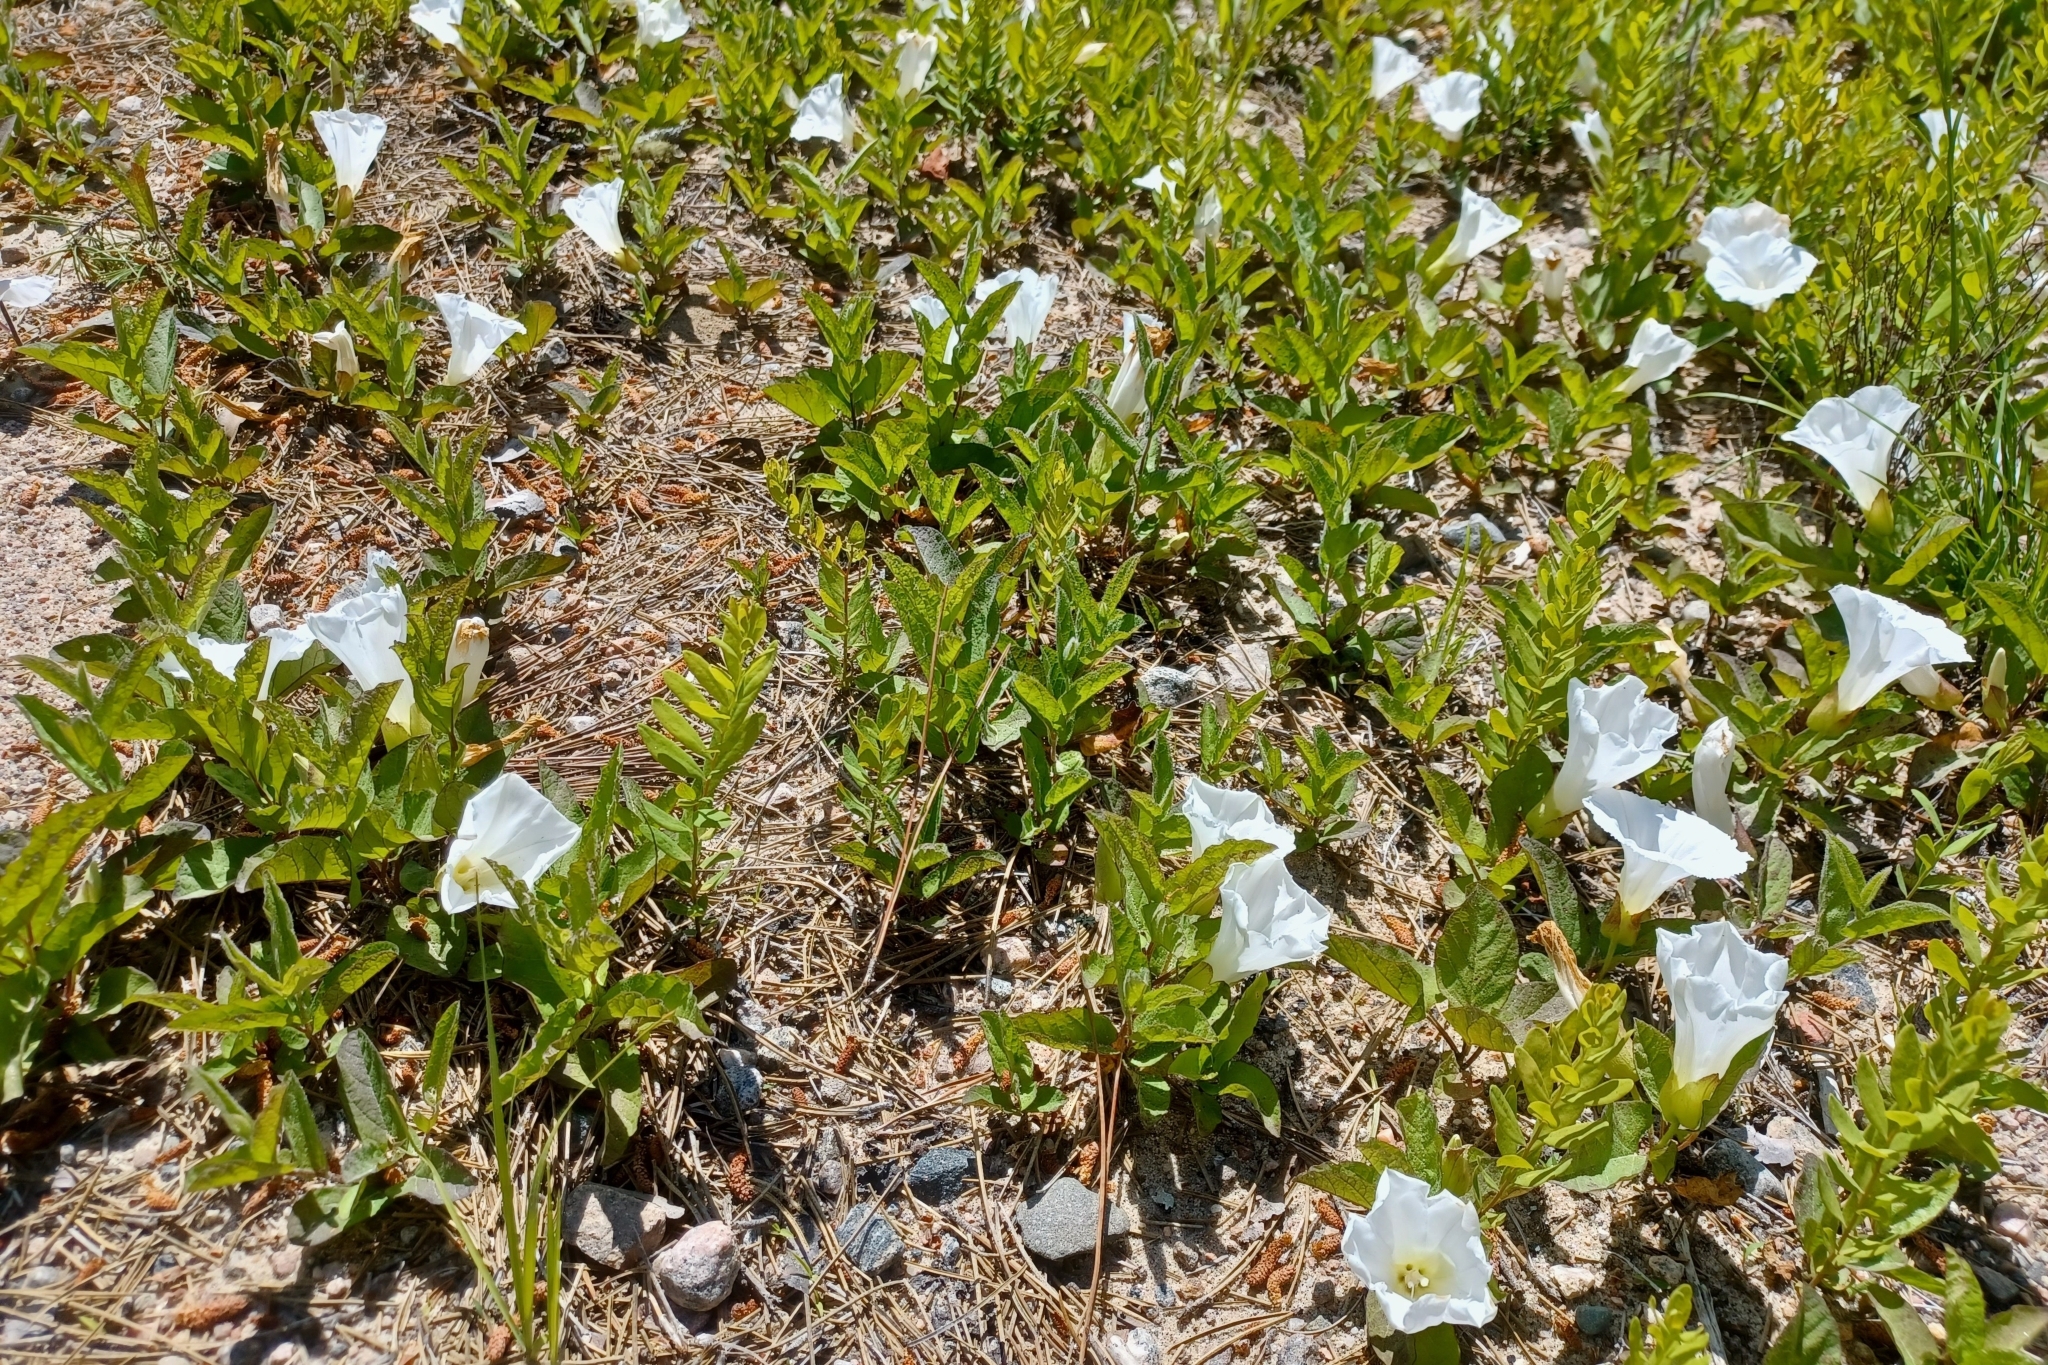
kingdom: Plantae
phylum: Tracheophyta
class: Magnoliopsida
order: Solanales
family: Convolvulaceae
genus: Calystegia
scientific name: Calystegia spithamaea
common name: Dwarf bindweed
